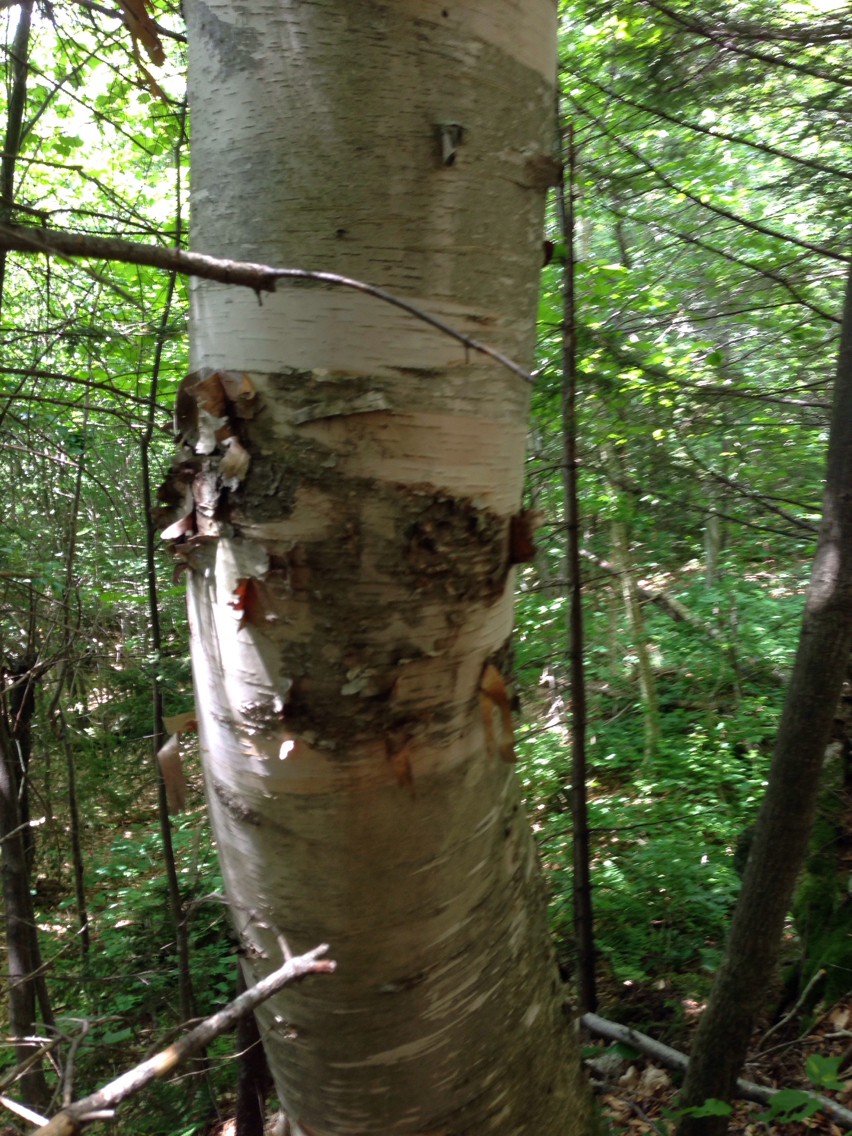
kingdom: Plantae
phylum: Tracheophyta
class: Magnoliopsida
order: Fagales
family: Betulaceae
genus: Betula
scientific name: Betula papyrifera
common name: Paper birch
